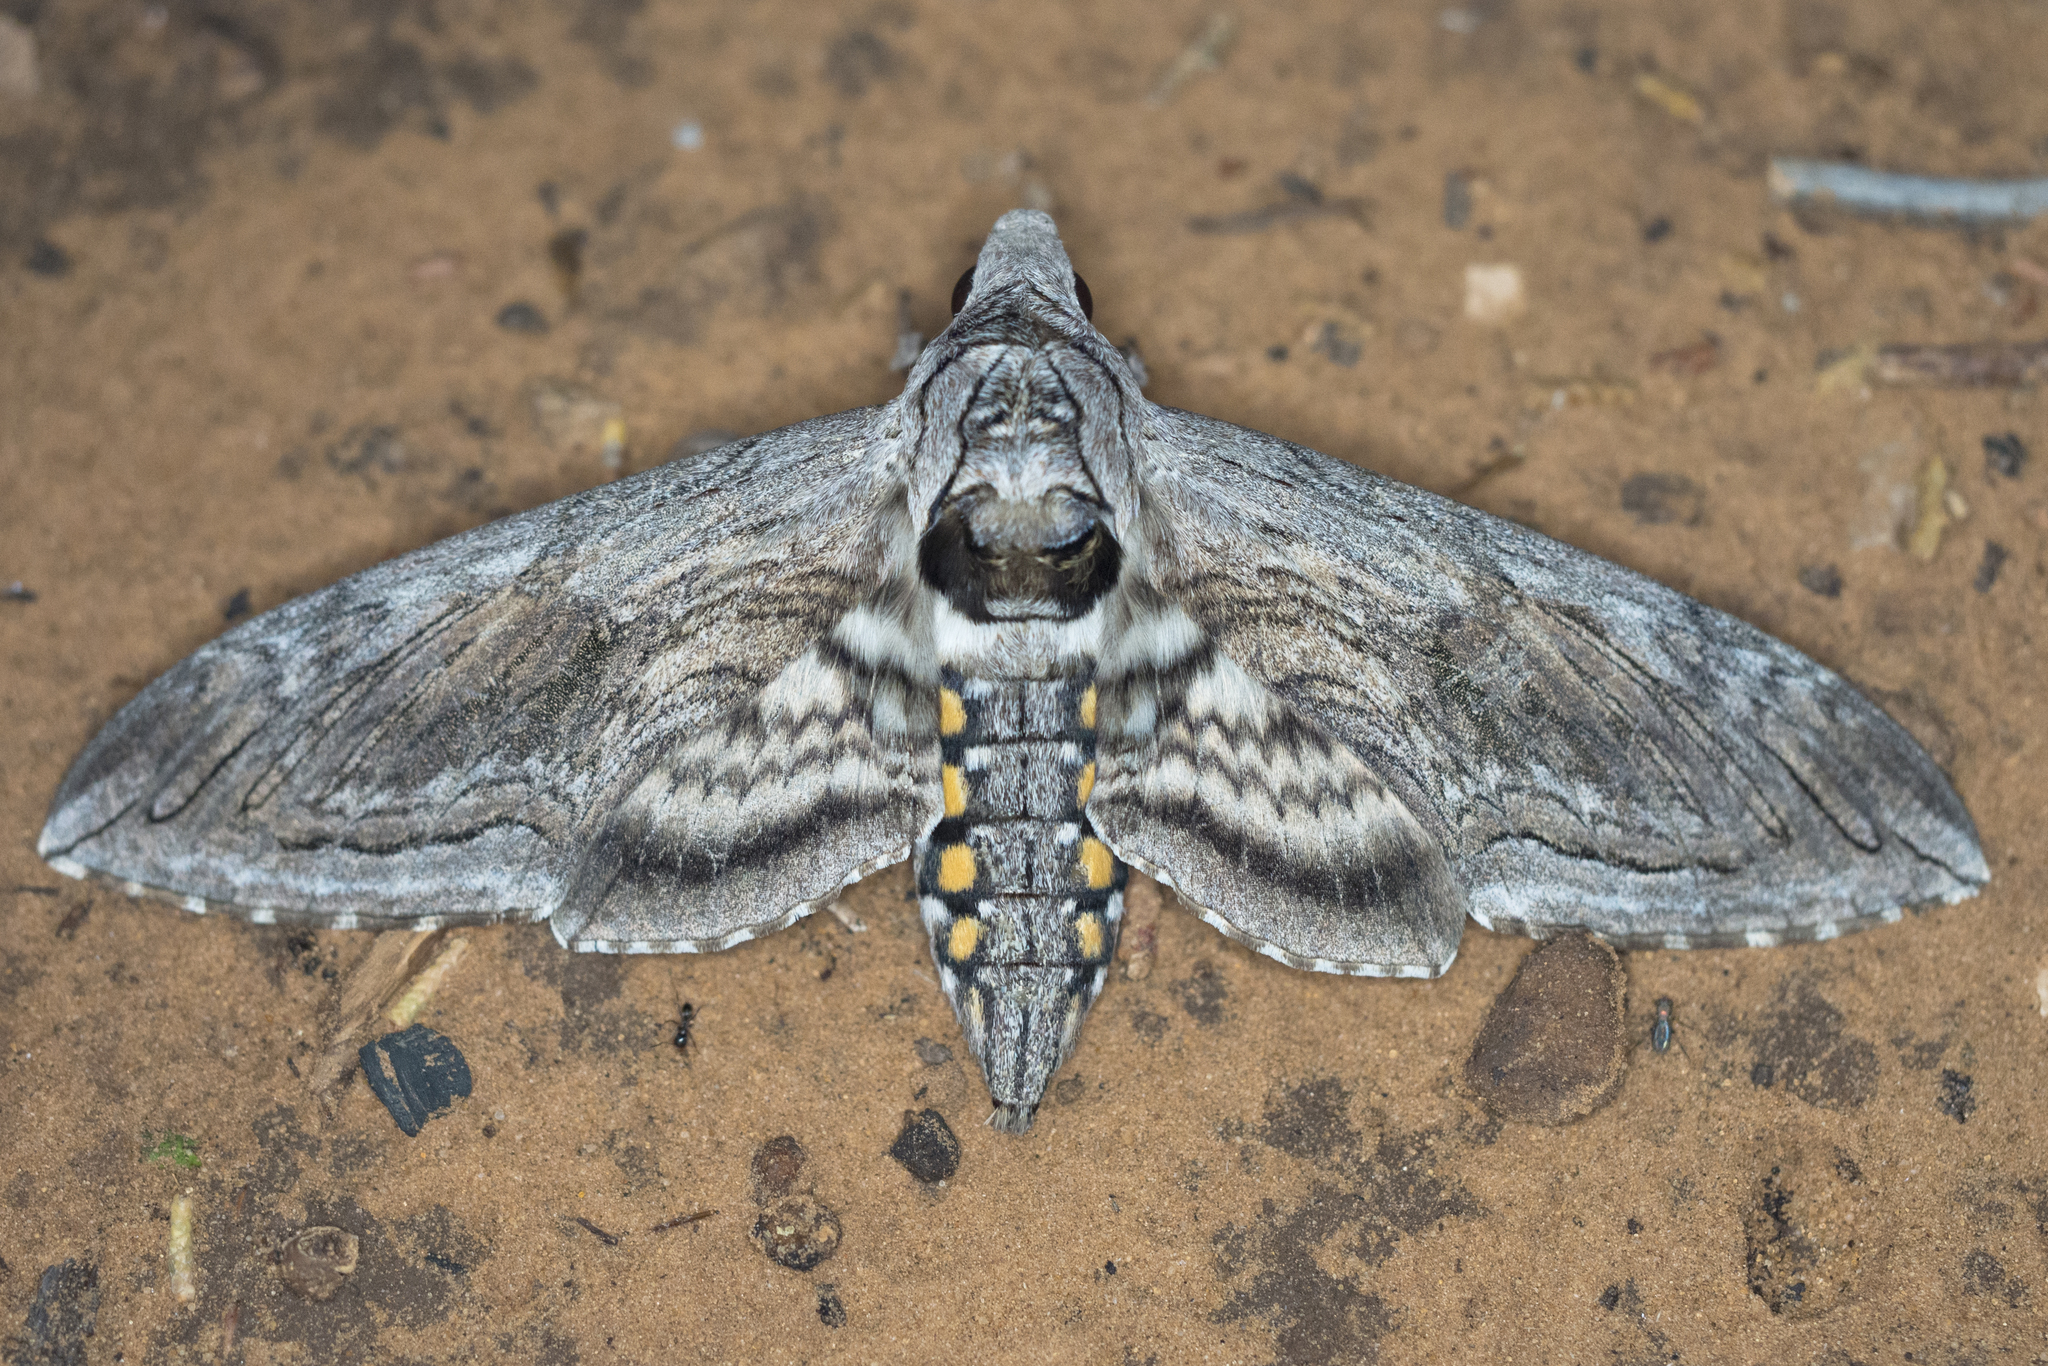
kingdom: Animalia
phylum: Arthropoda
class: Insecta
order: Lepidoptera
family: Sphingidae
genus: Manduca
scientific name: Manduca quinquemaculatus
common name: Five-spotted hawk-moth
